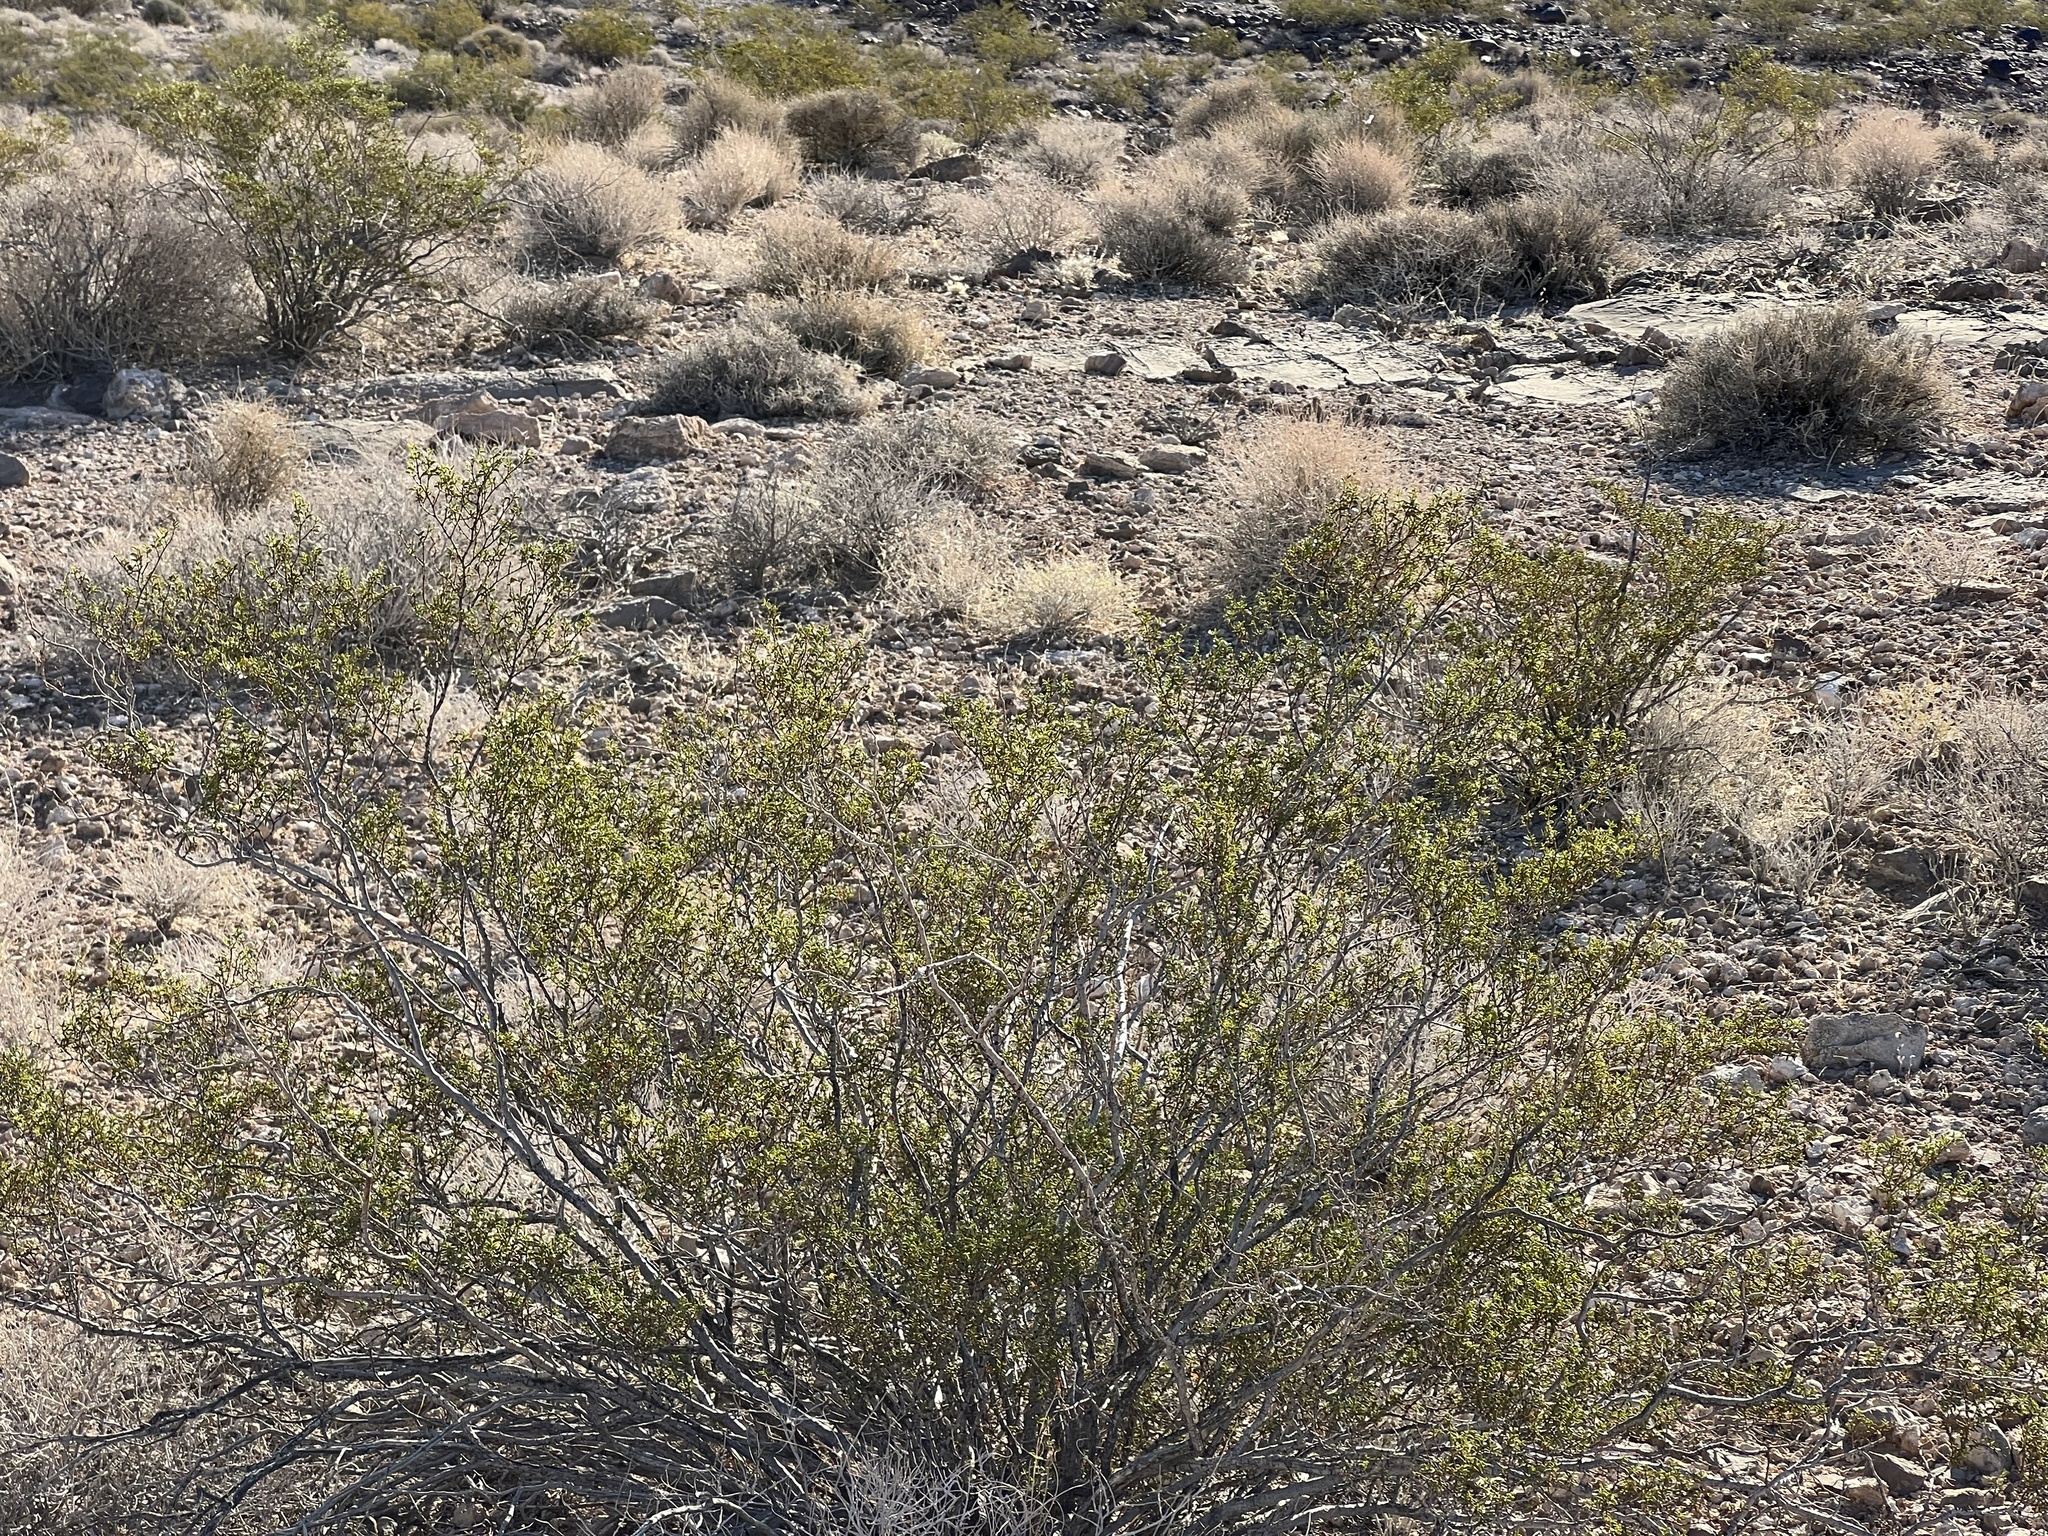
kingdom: Plantae
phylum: Tracheophyta
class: Magnoliopsida
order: Zygophyllales
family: Zygophyllaceae
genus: Larrea
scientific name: Larrea tridentata
